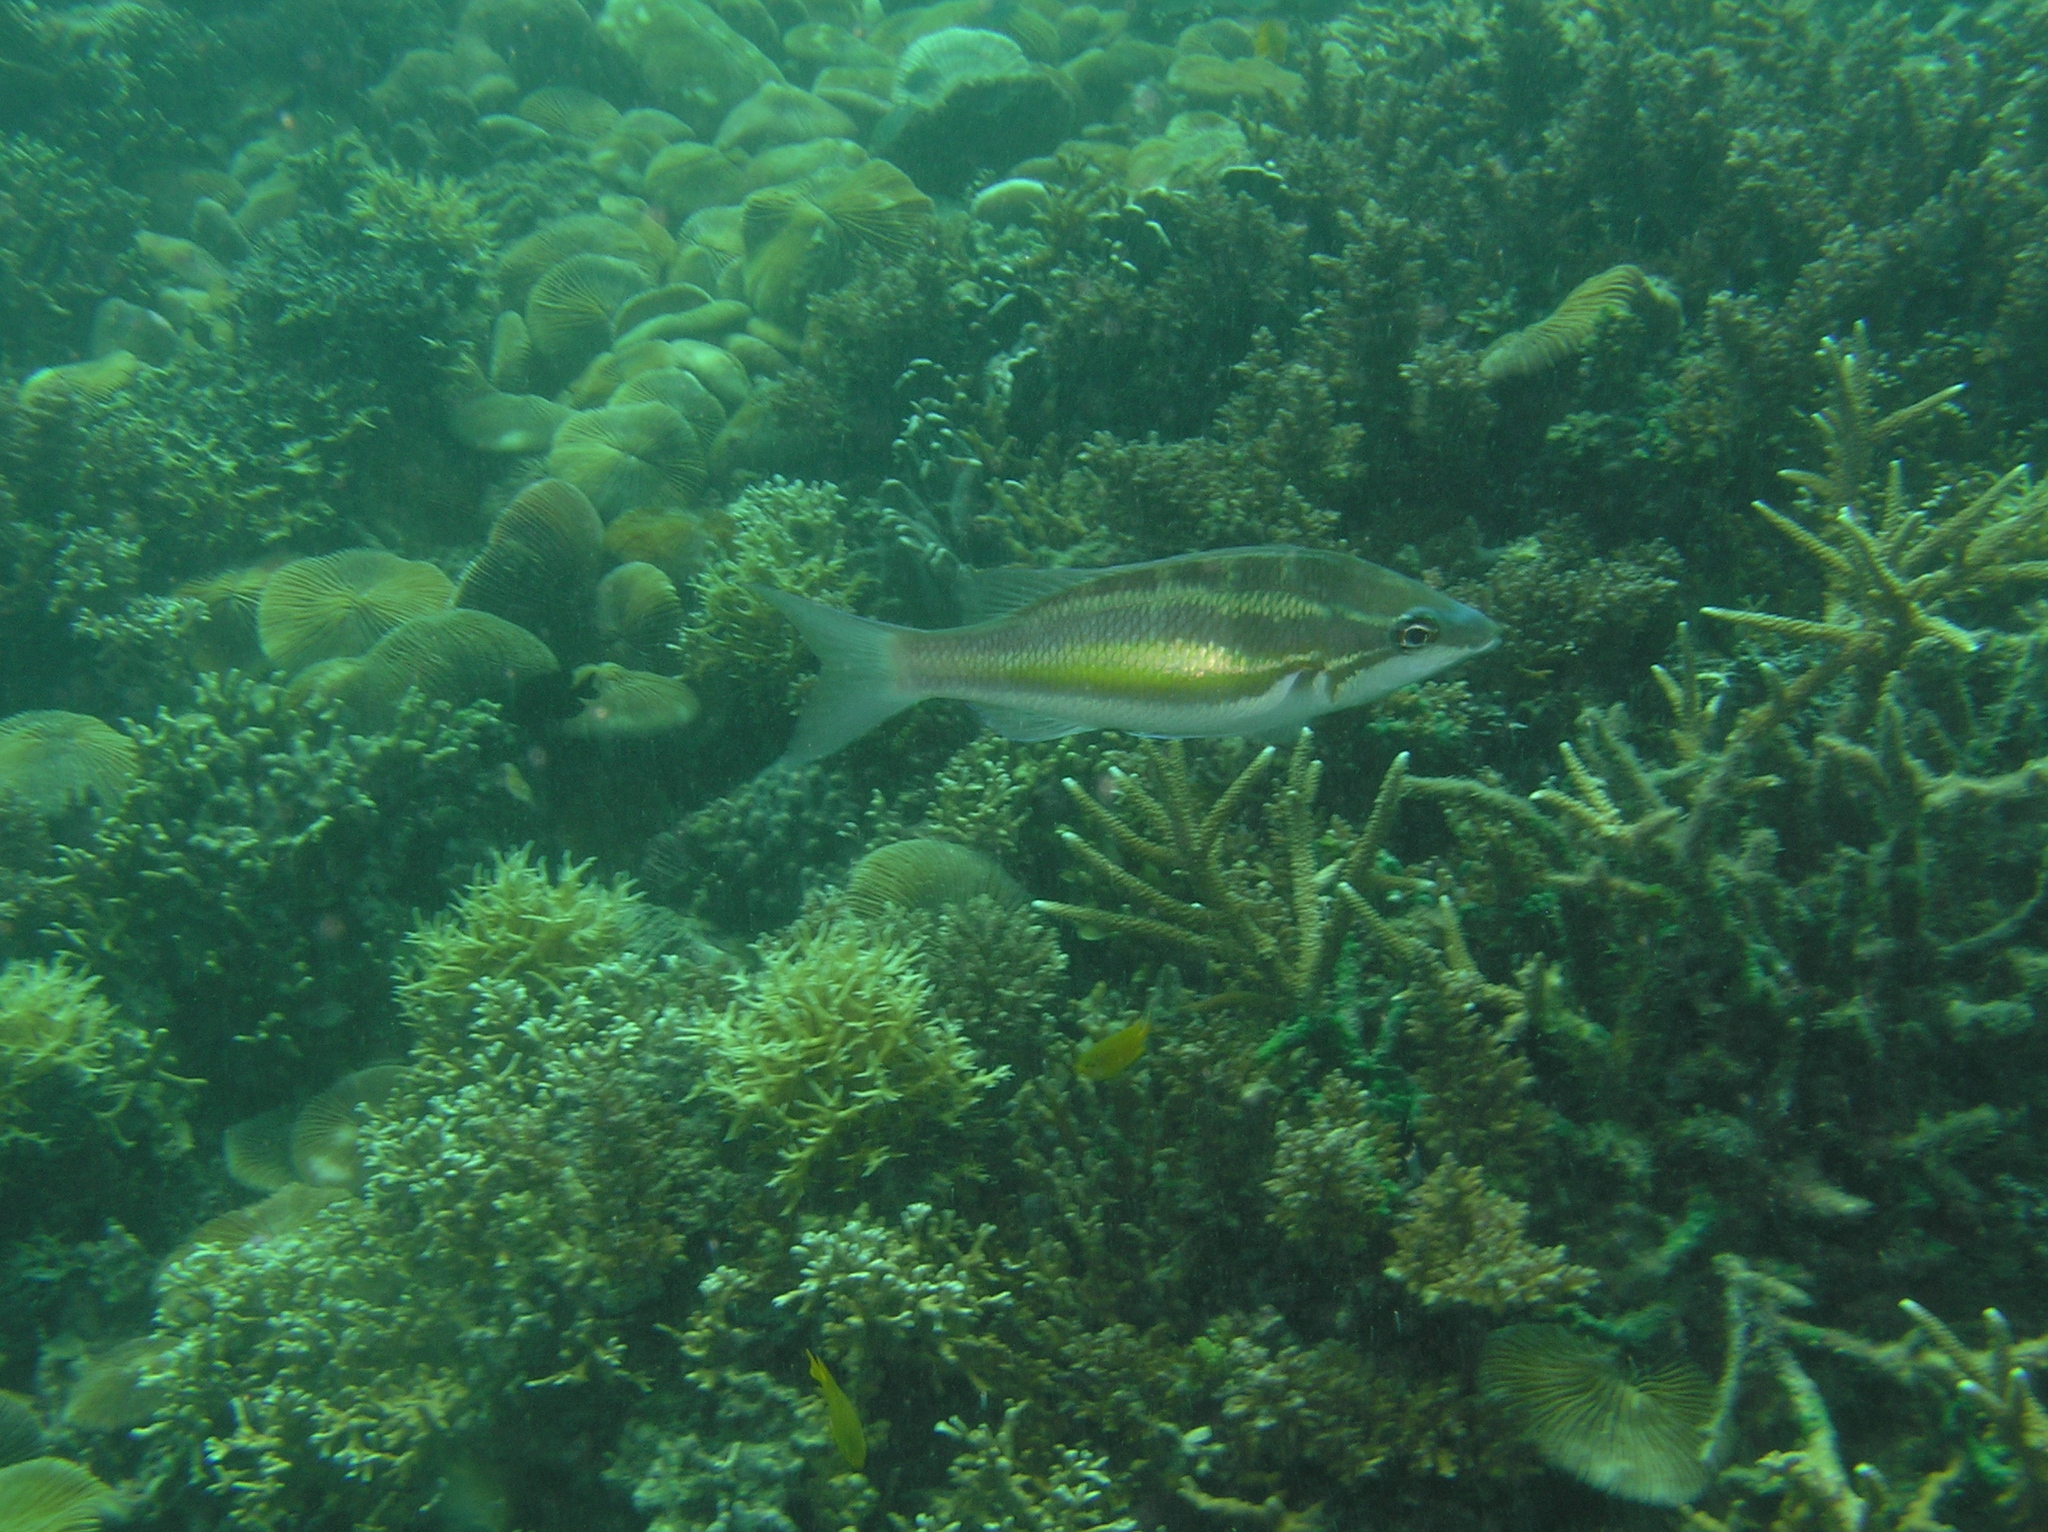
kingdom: Animalia
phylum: Chordata
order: Perciformes
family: Nemipteridae
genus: Pentapodus
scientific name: Pentapodus trivittatus
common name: Three-striped whiptail
